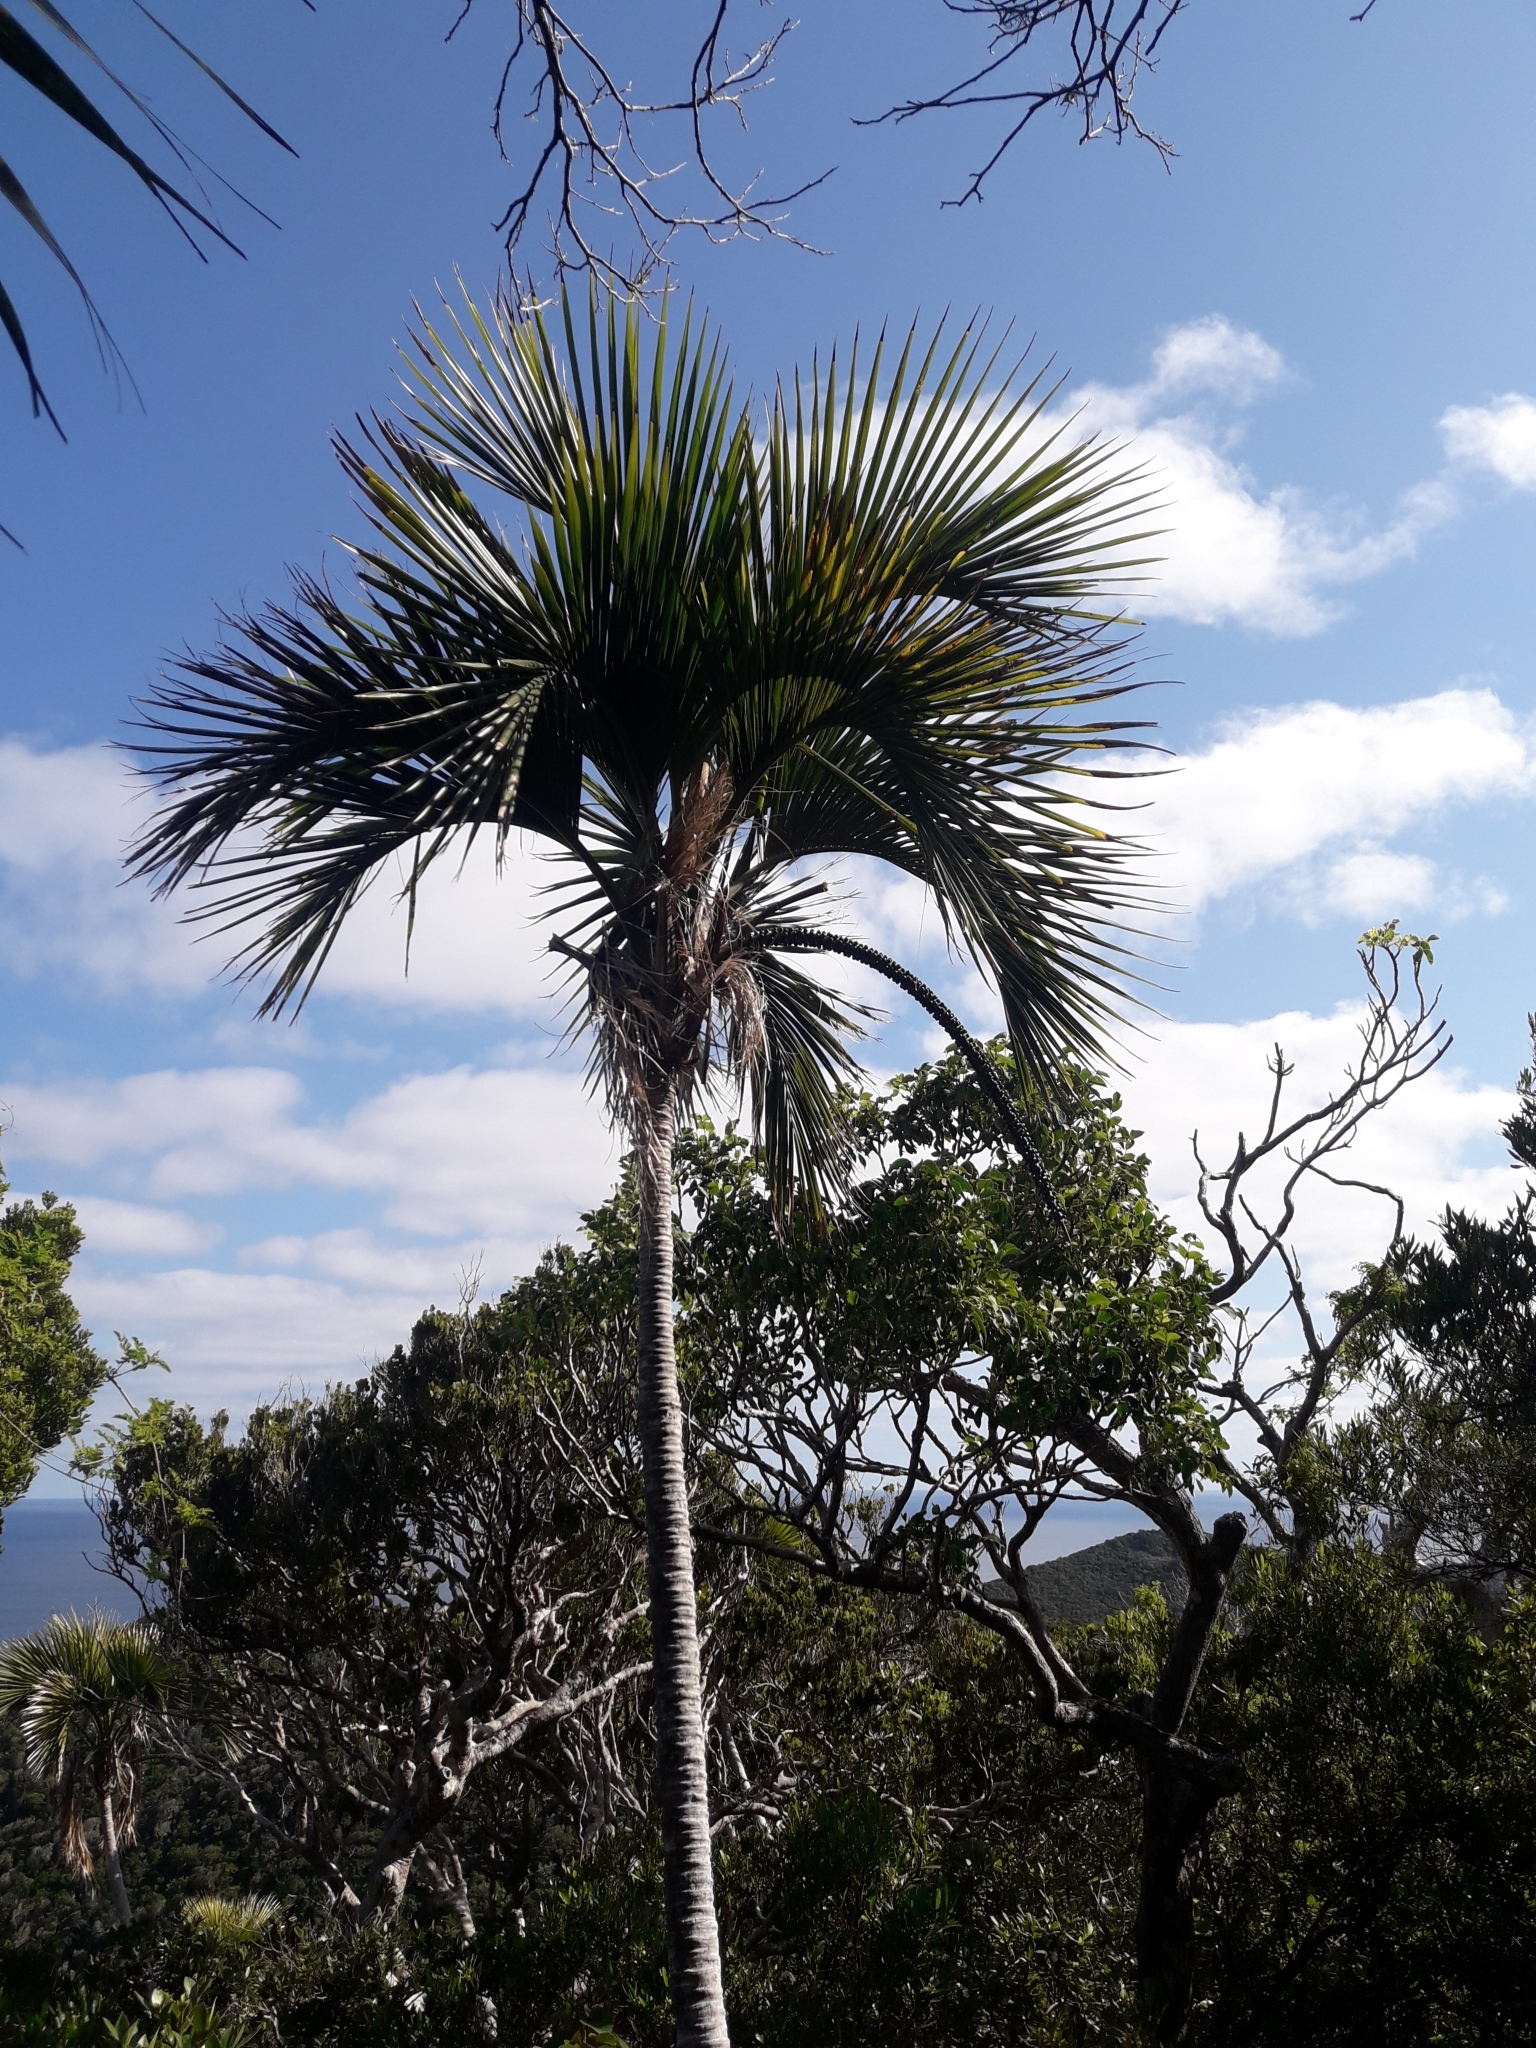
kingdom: Plantae
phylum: Tracheophyta
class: Liliopsida
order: Arecales
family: Arecaceae
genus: Howea
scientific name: Howea belmoreana
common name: Curly palm
